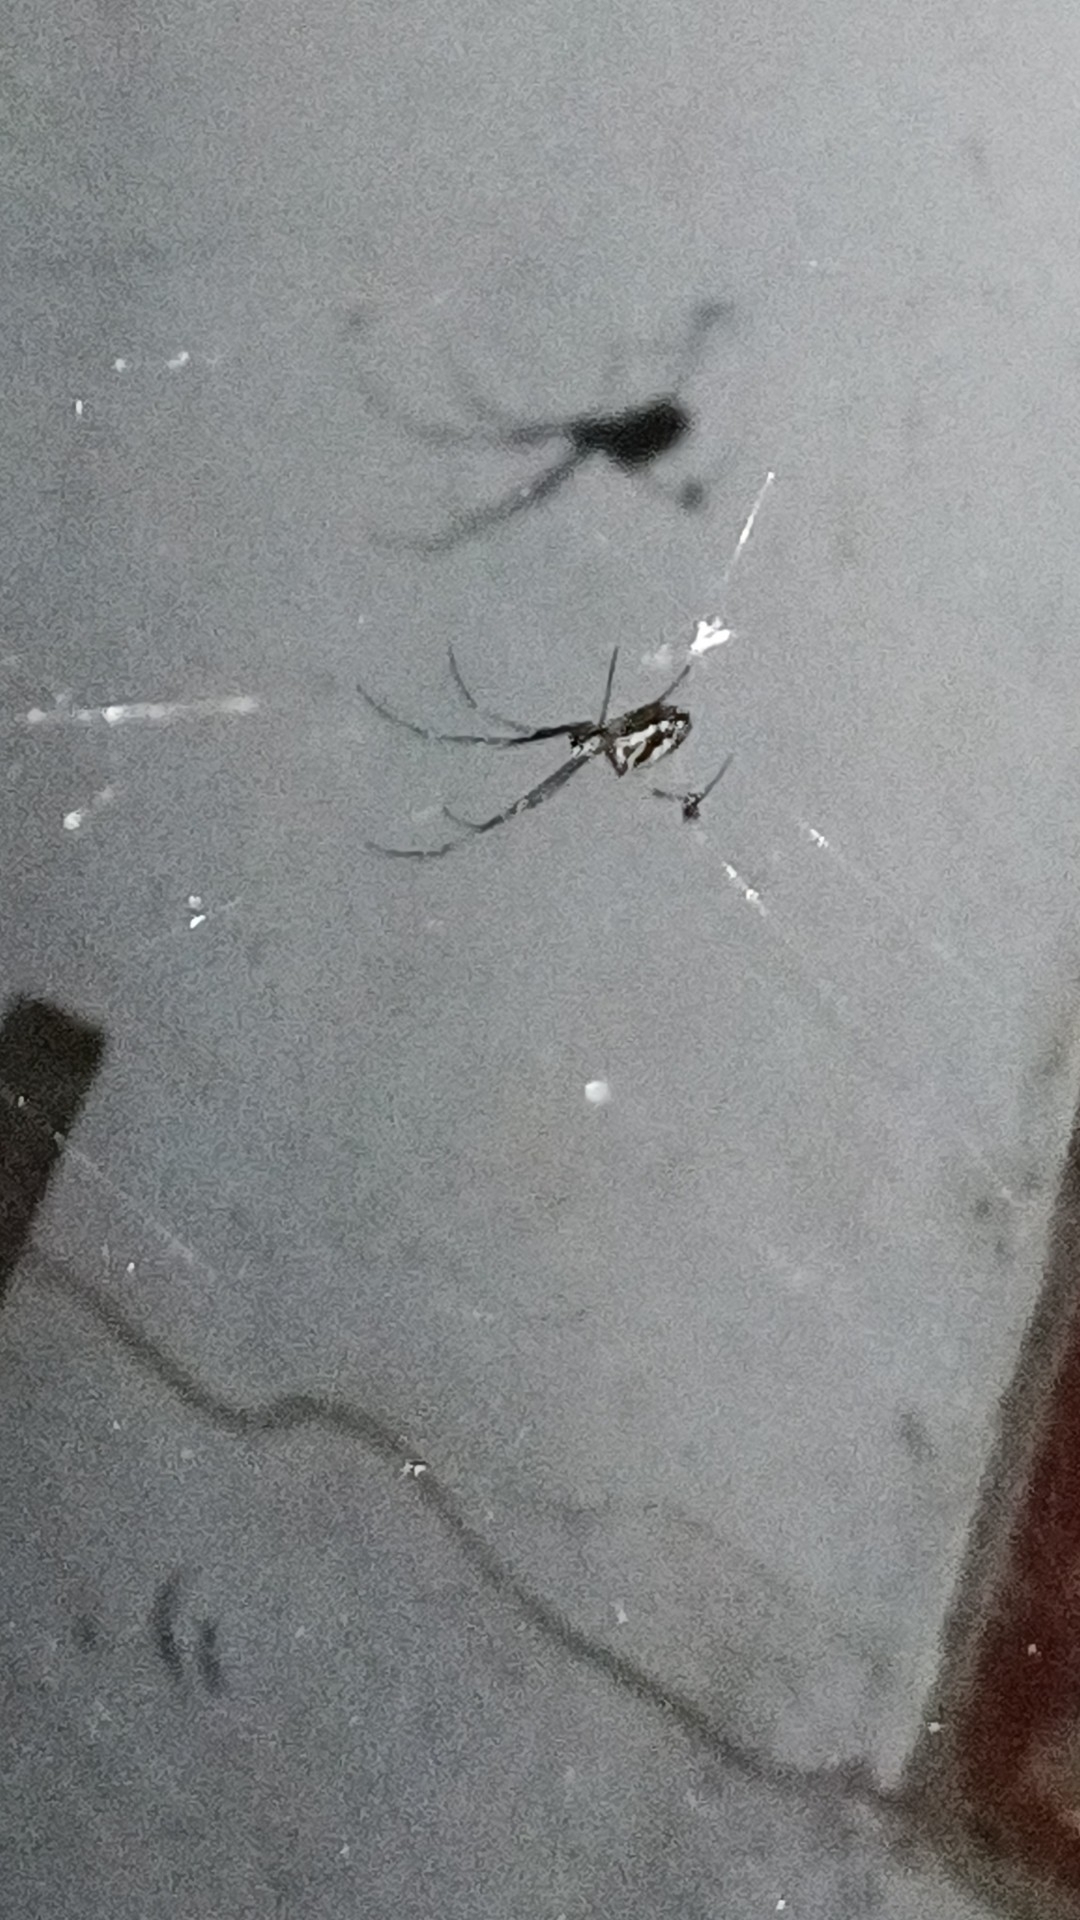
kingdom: Animalia
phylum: Arthropoda
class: Arachnida
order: Araneae
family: Tetragnathidae
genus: Leucauge
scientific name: Leucauge argyra
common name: Longjawed orb weavers
